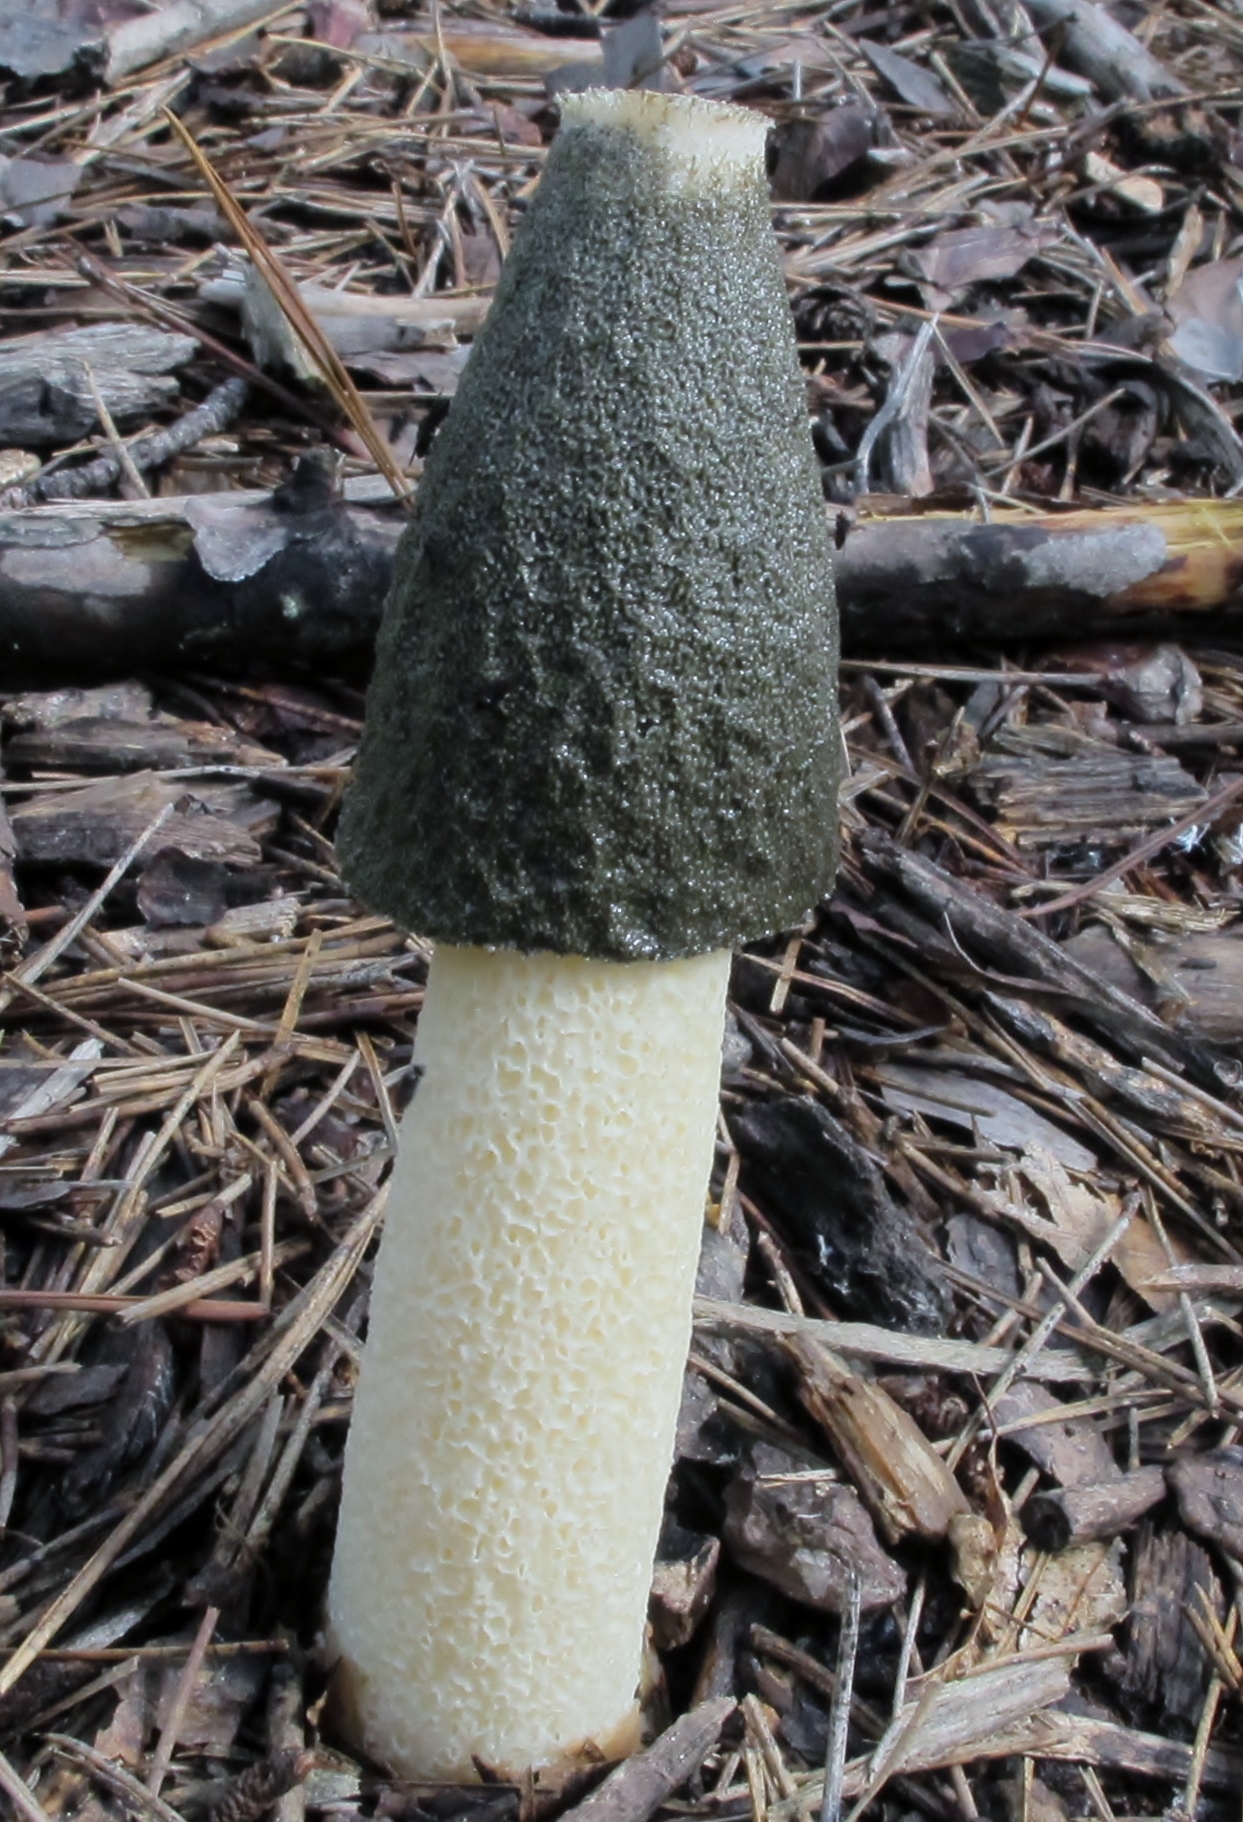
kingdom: Fungi
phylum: Basidiomycota
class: Agaricomycetes
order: Phallales
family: Phallaceae
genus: Phallus
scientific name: Phallus ravenelii
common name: Ravenel's stinkhorn
